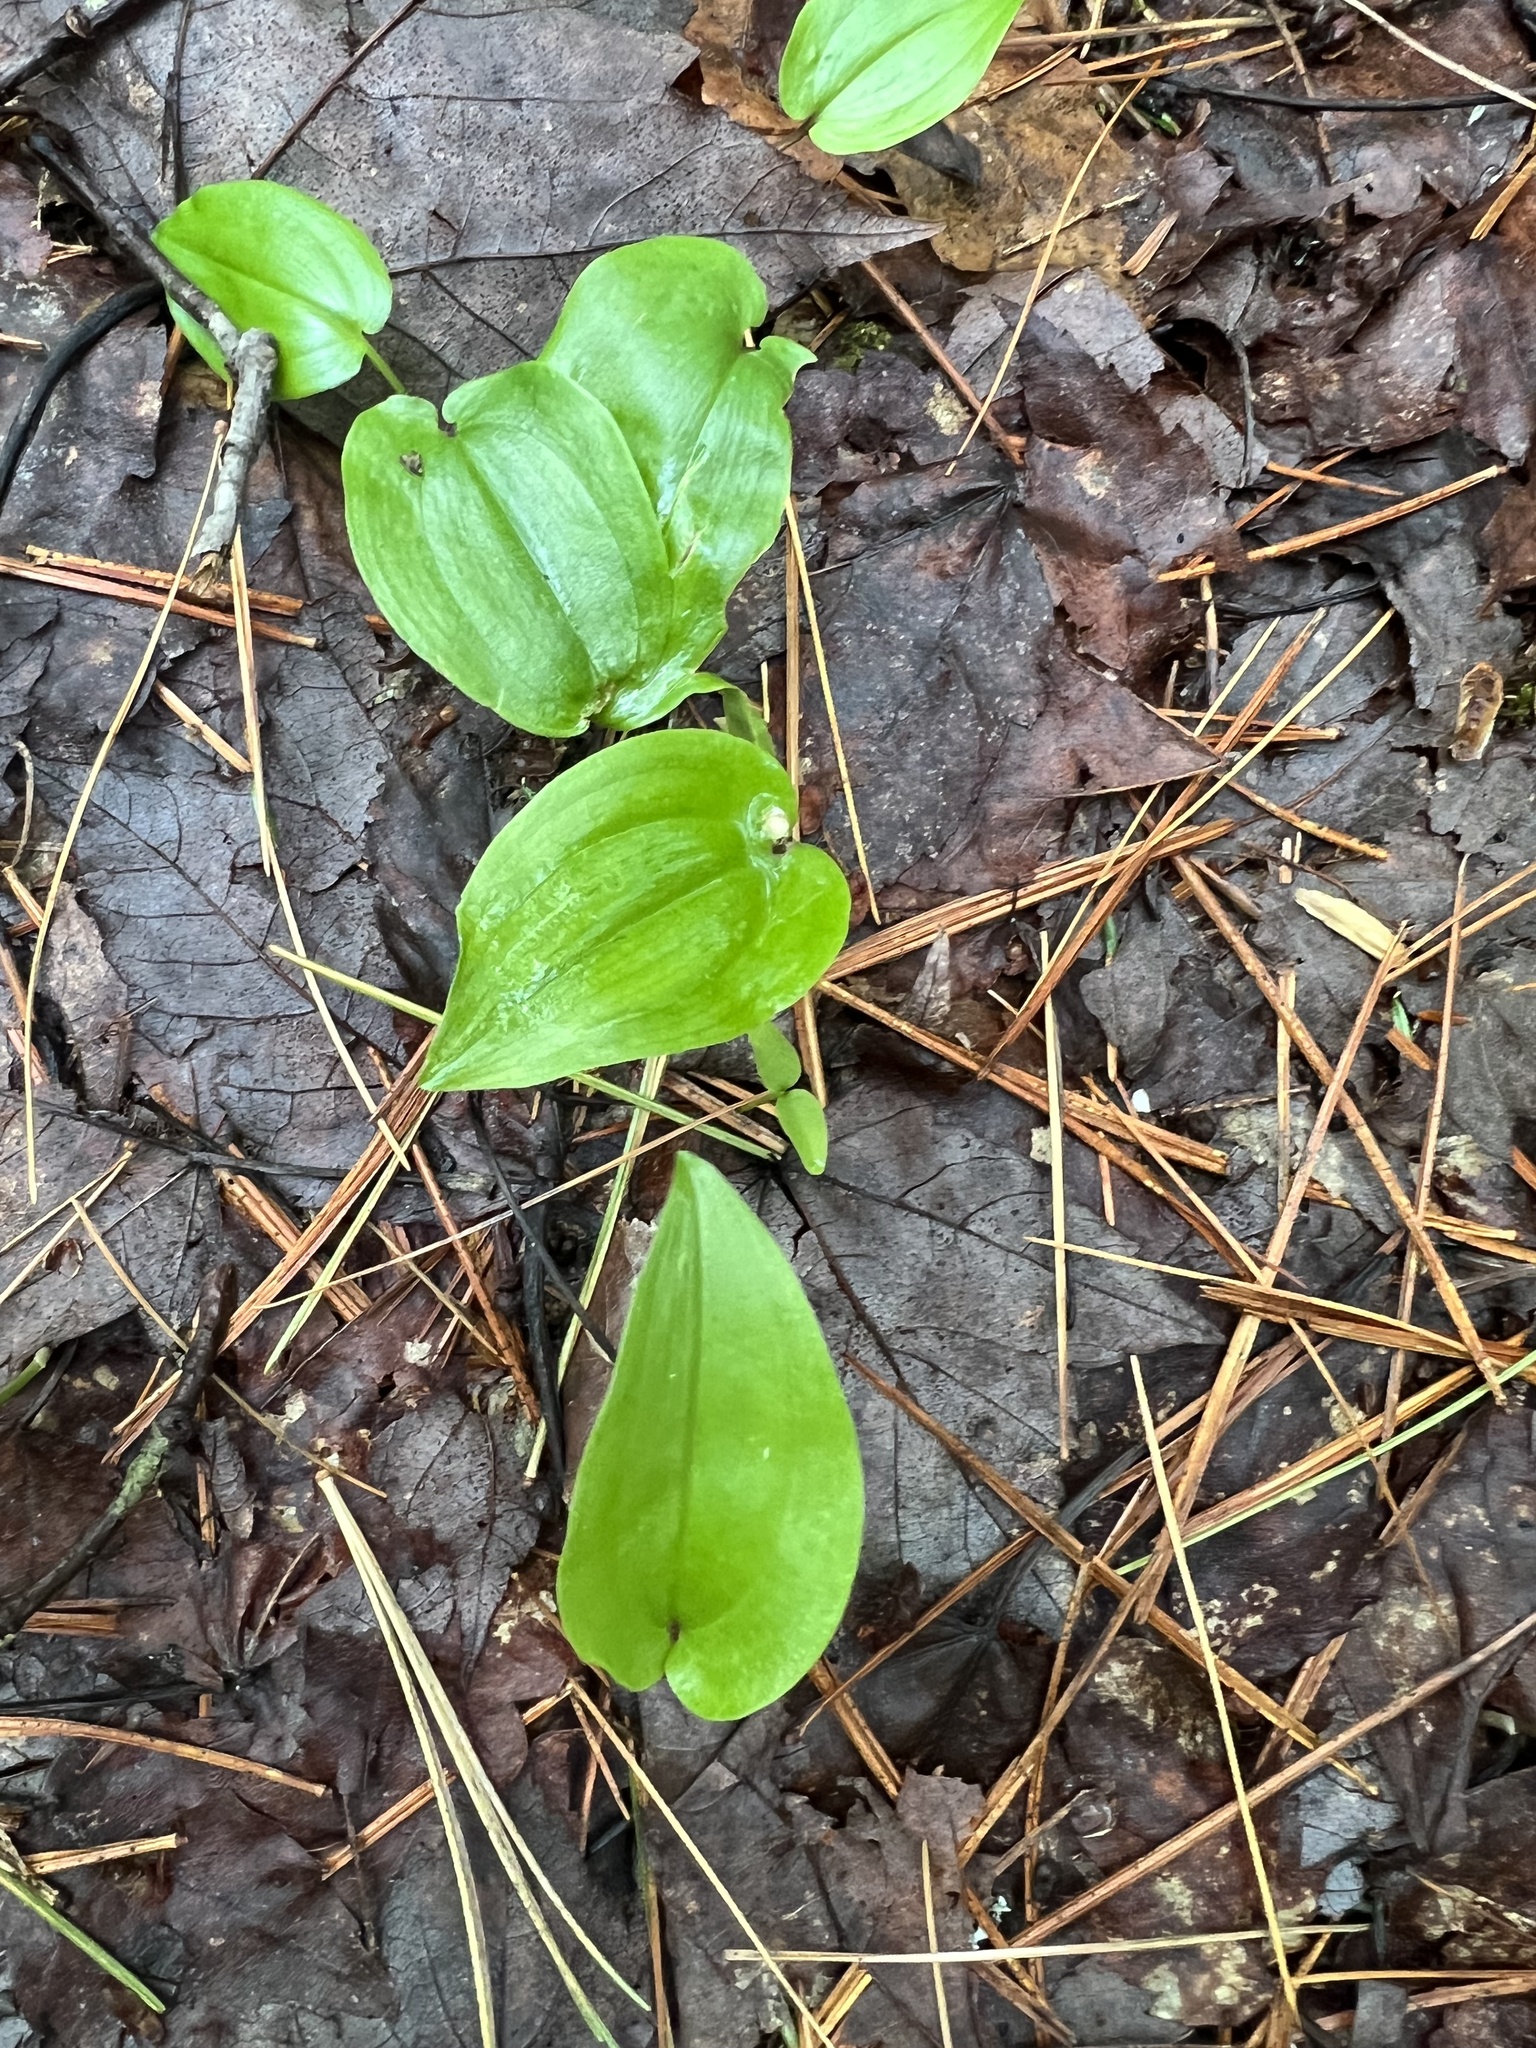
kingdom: Plantae
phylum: Tracheophyta
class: Liliopsida
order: Asparagales
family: Asparagaceae
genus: Maianthemum
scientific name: Maianthemum canadense
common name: False lily-of-the-valley
